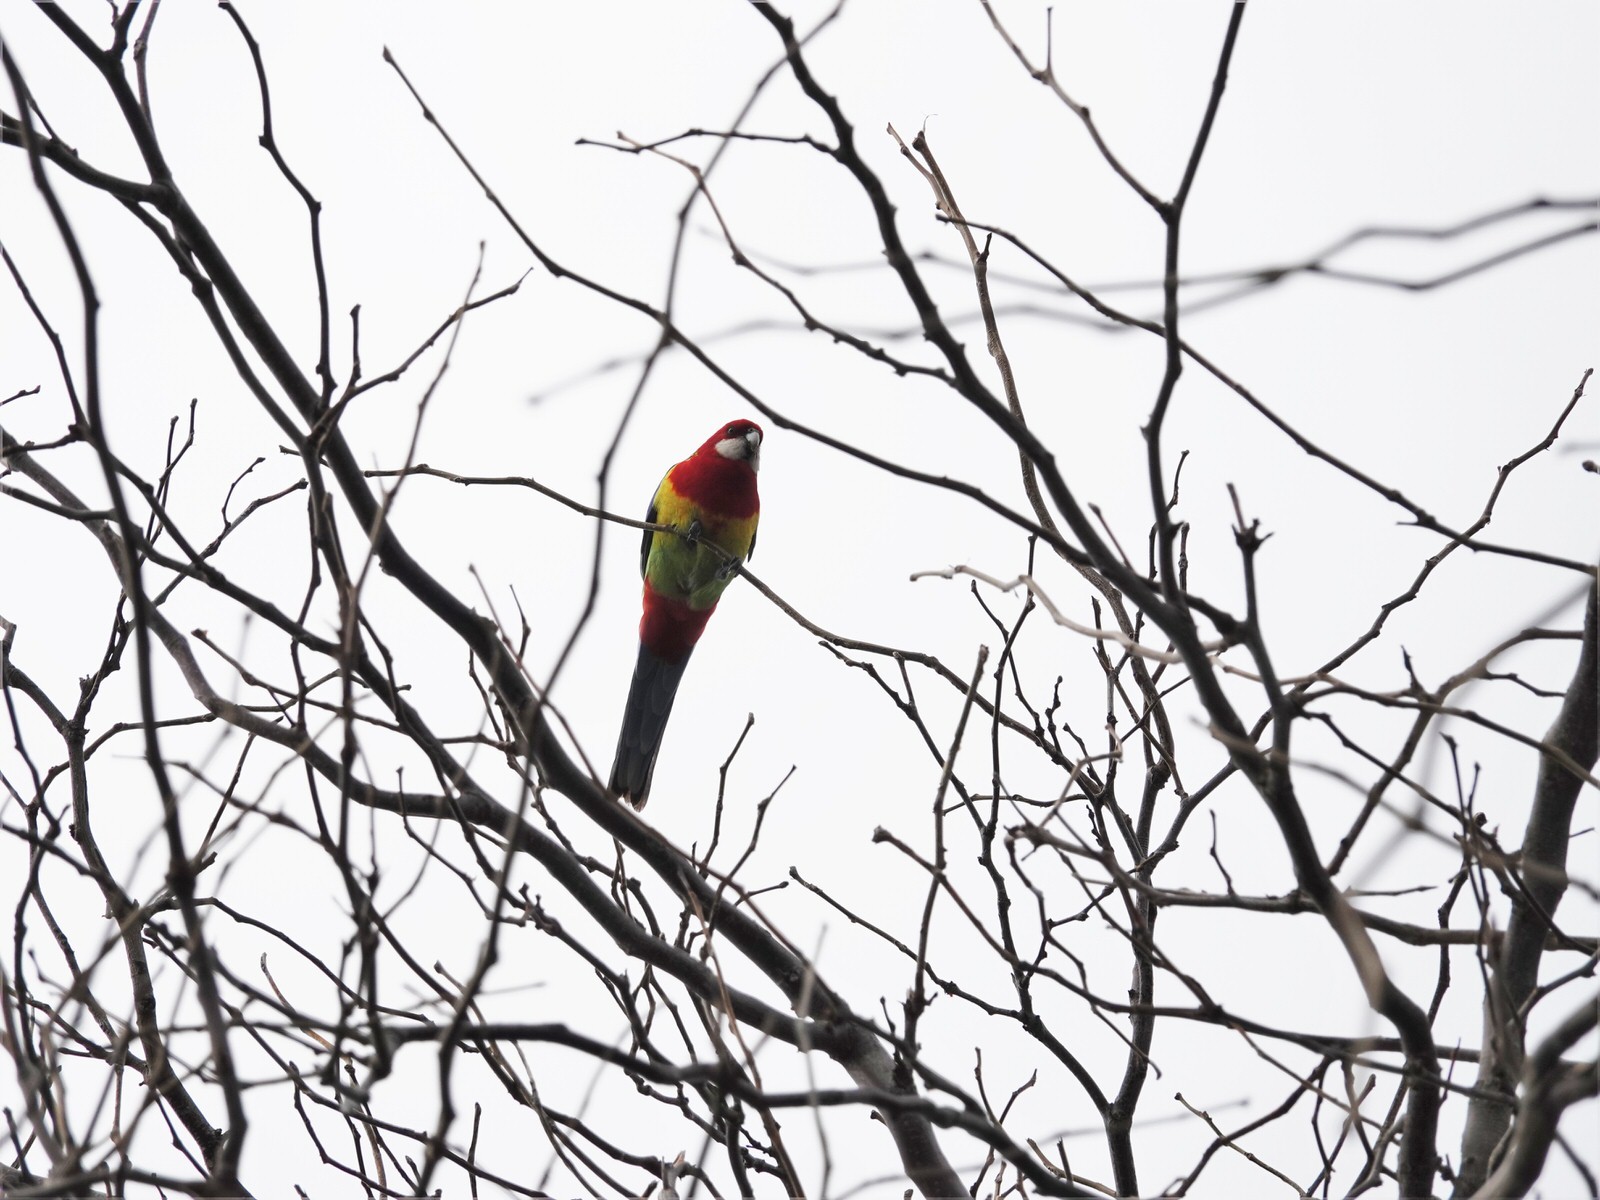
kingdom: Animalia
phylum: Chordata
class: Aves
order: Psittaciformes
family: Psittacidae
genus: Platycercus
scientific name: Platycercus eximius
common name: Eastern rosella
